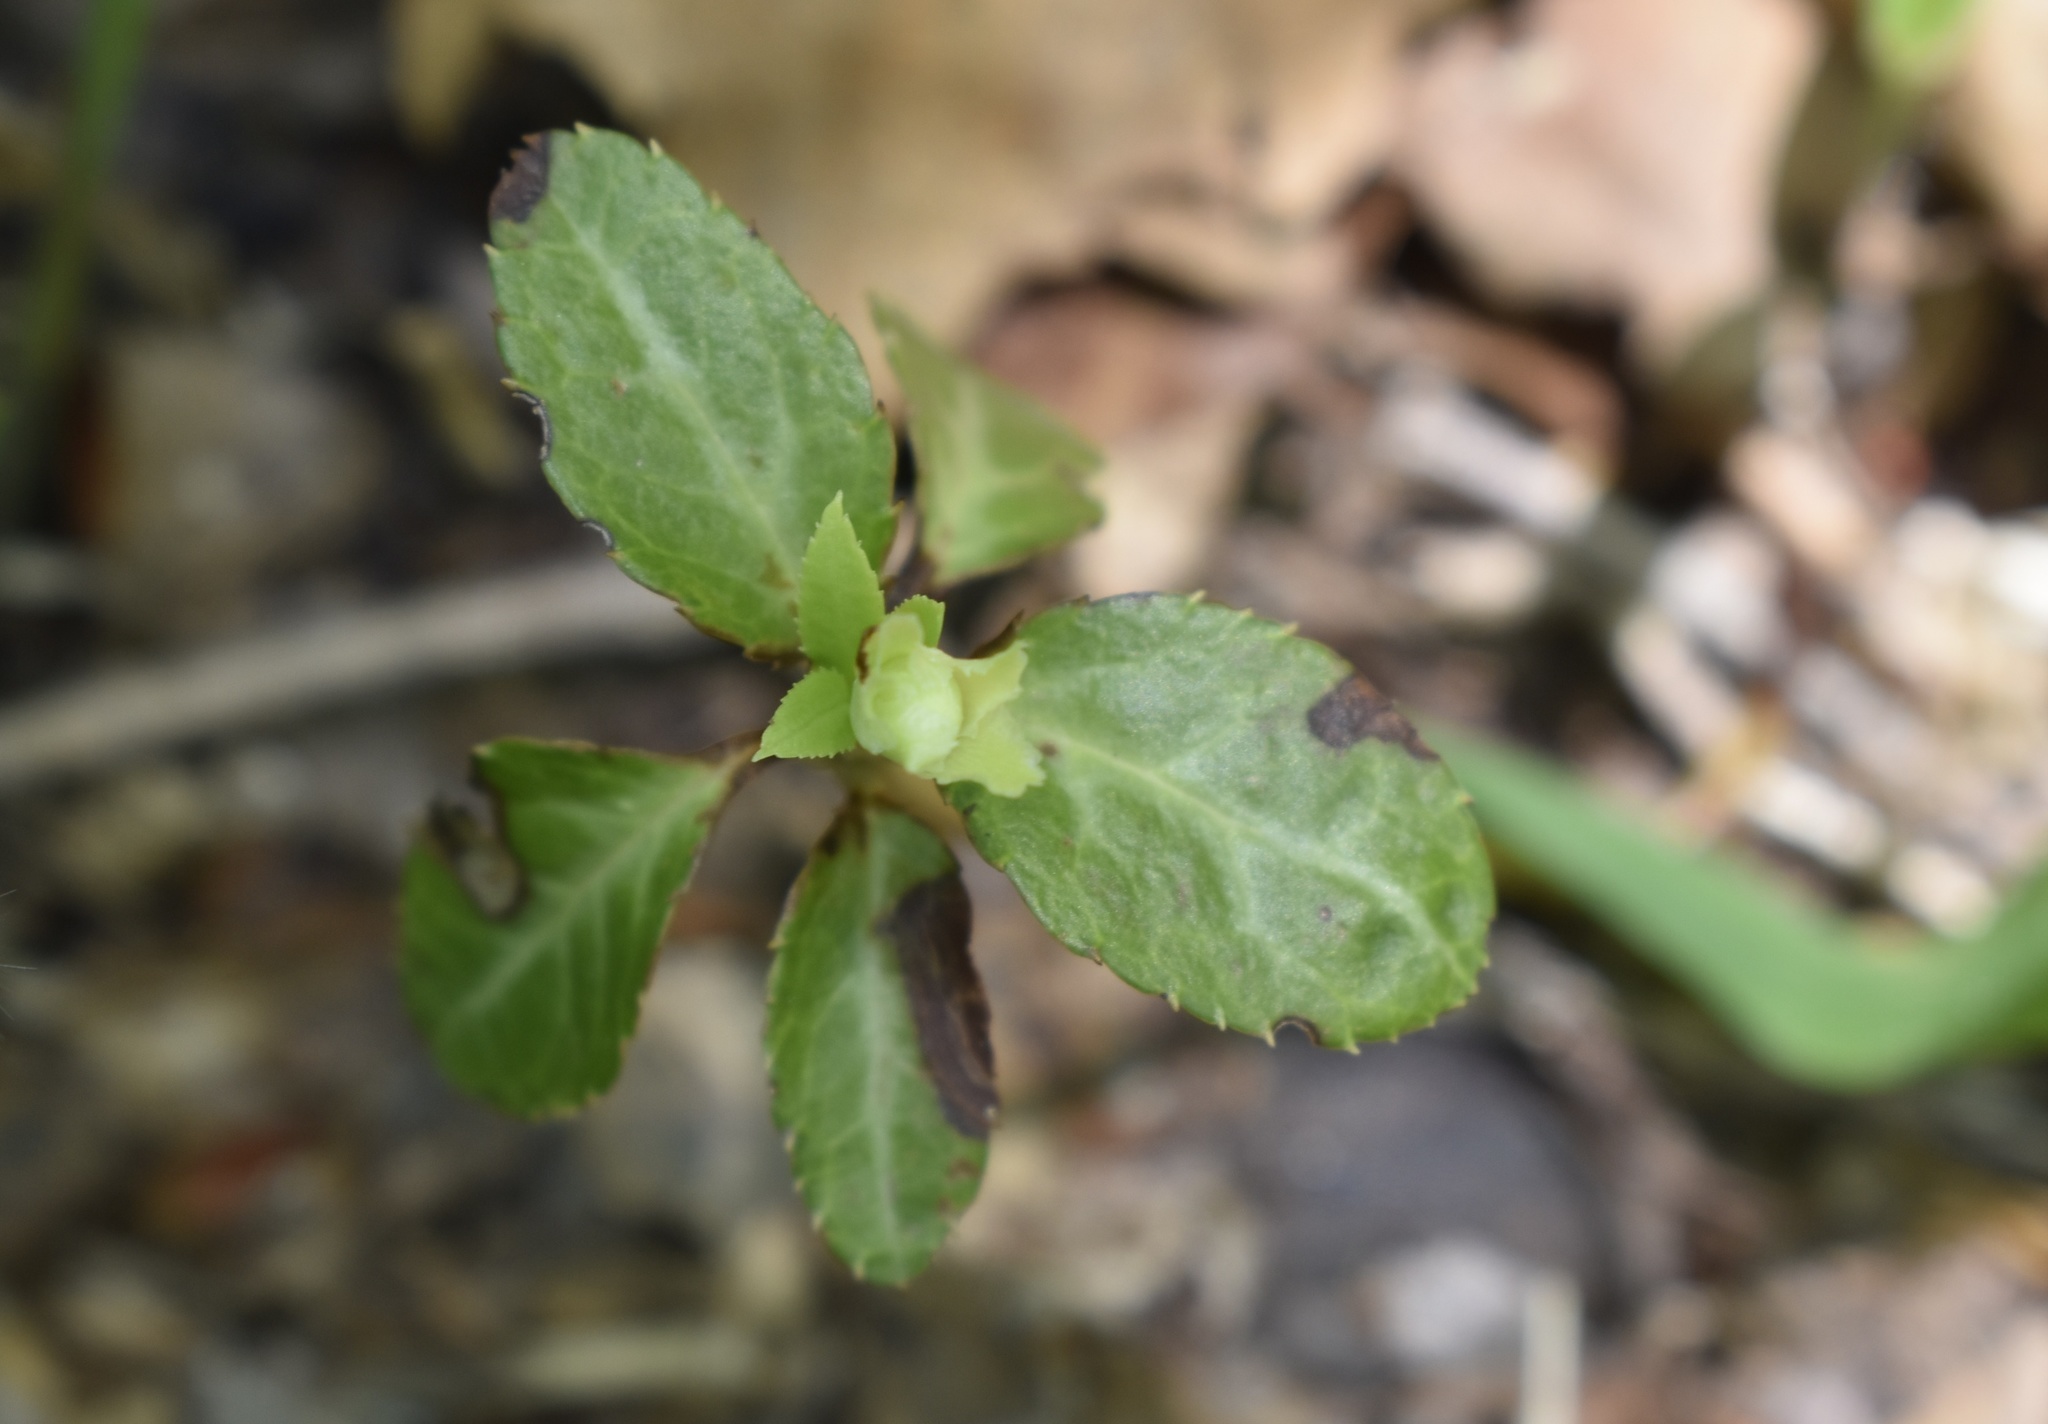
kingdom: Plantae
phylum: Tracheophyta
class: Magnoliopsida
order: Ericales
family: Ericaceae
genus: Chimaphila
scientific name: Chimaphila japonica
